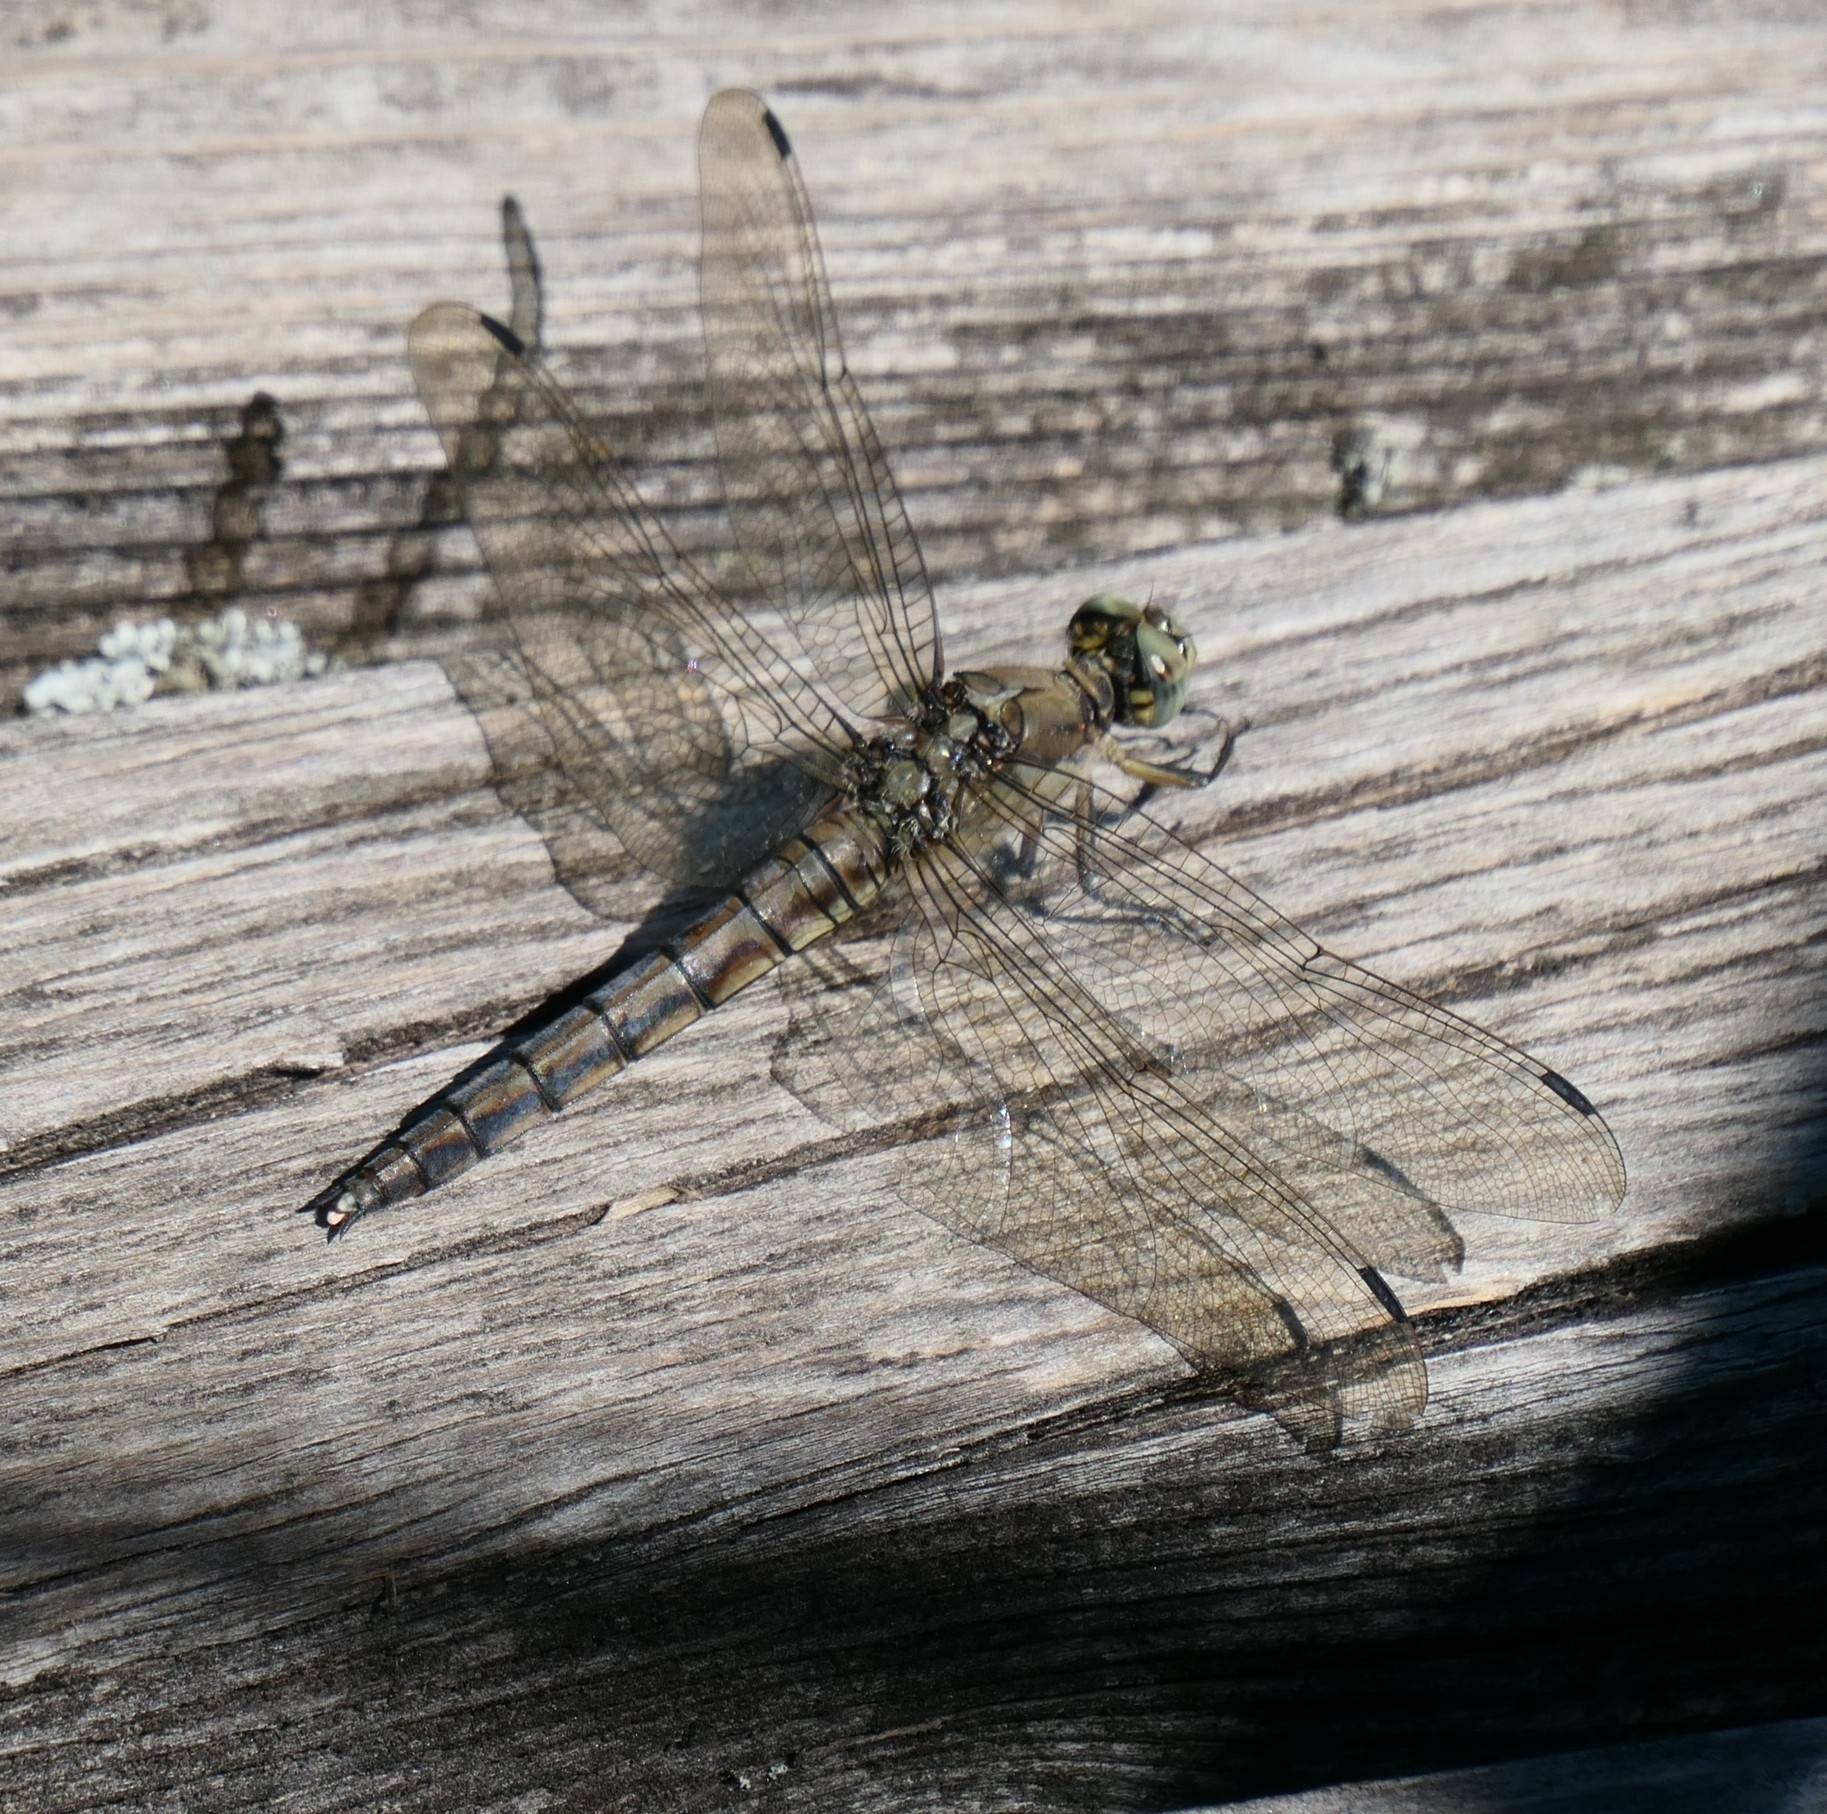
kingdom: Animalia
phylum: Arthropoda
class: Insecta
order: Odonata
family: Libellulidae
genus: Orthetrum
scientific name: Orthetrum cancellatum
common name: Black-tailed skimmer
